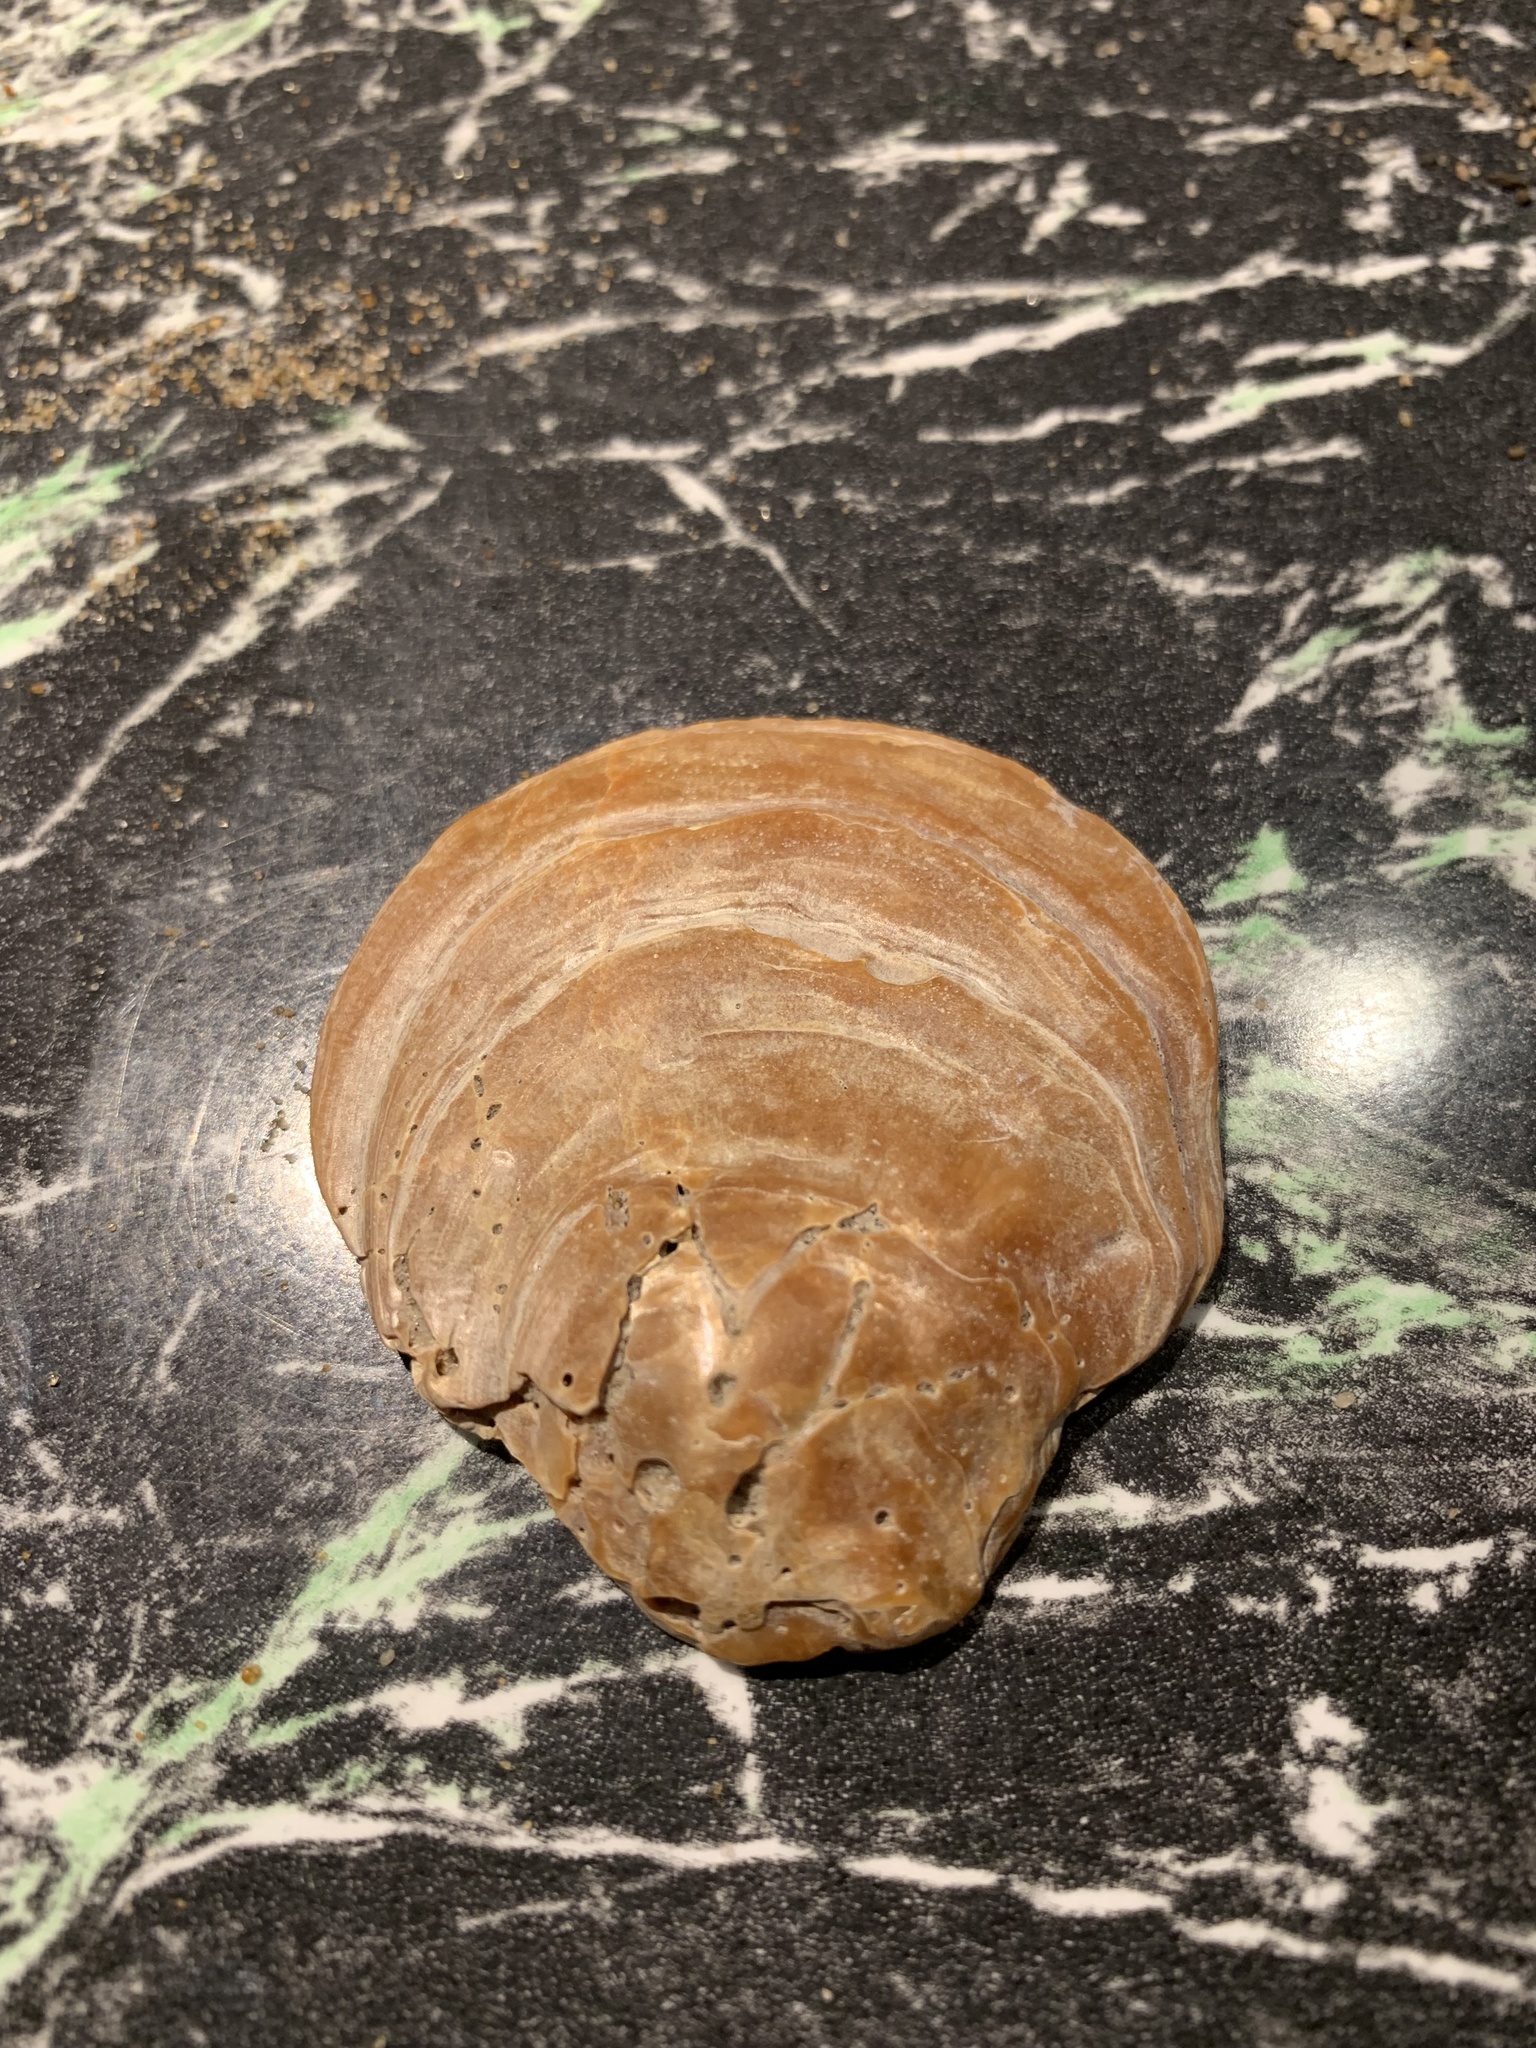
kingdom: Animalia
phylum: Mollusca
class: Bivalvia
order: Ostreida
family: Ostreidae
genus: Ostrea
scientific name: Ostrea edulis
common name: Flat oyster
